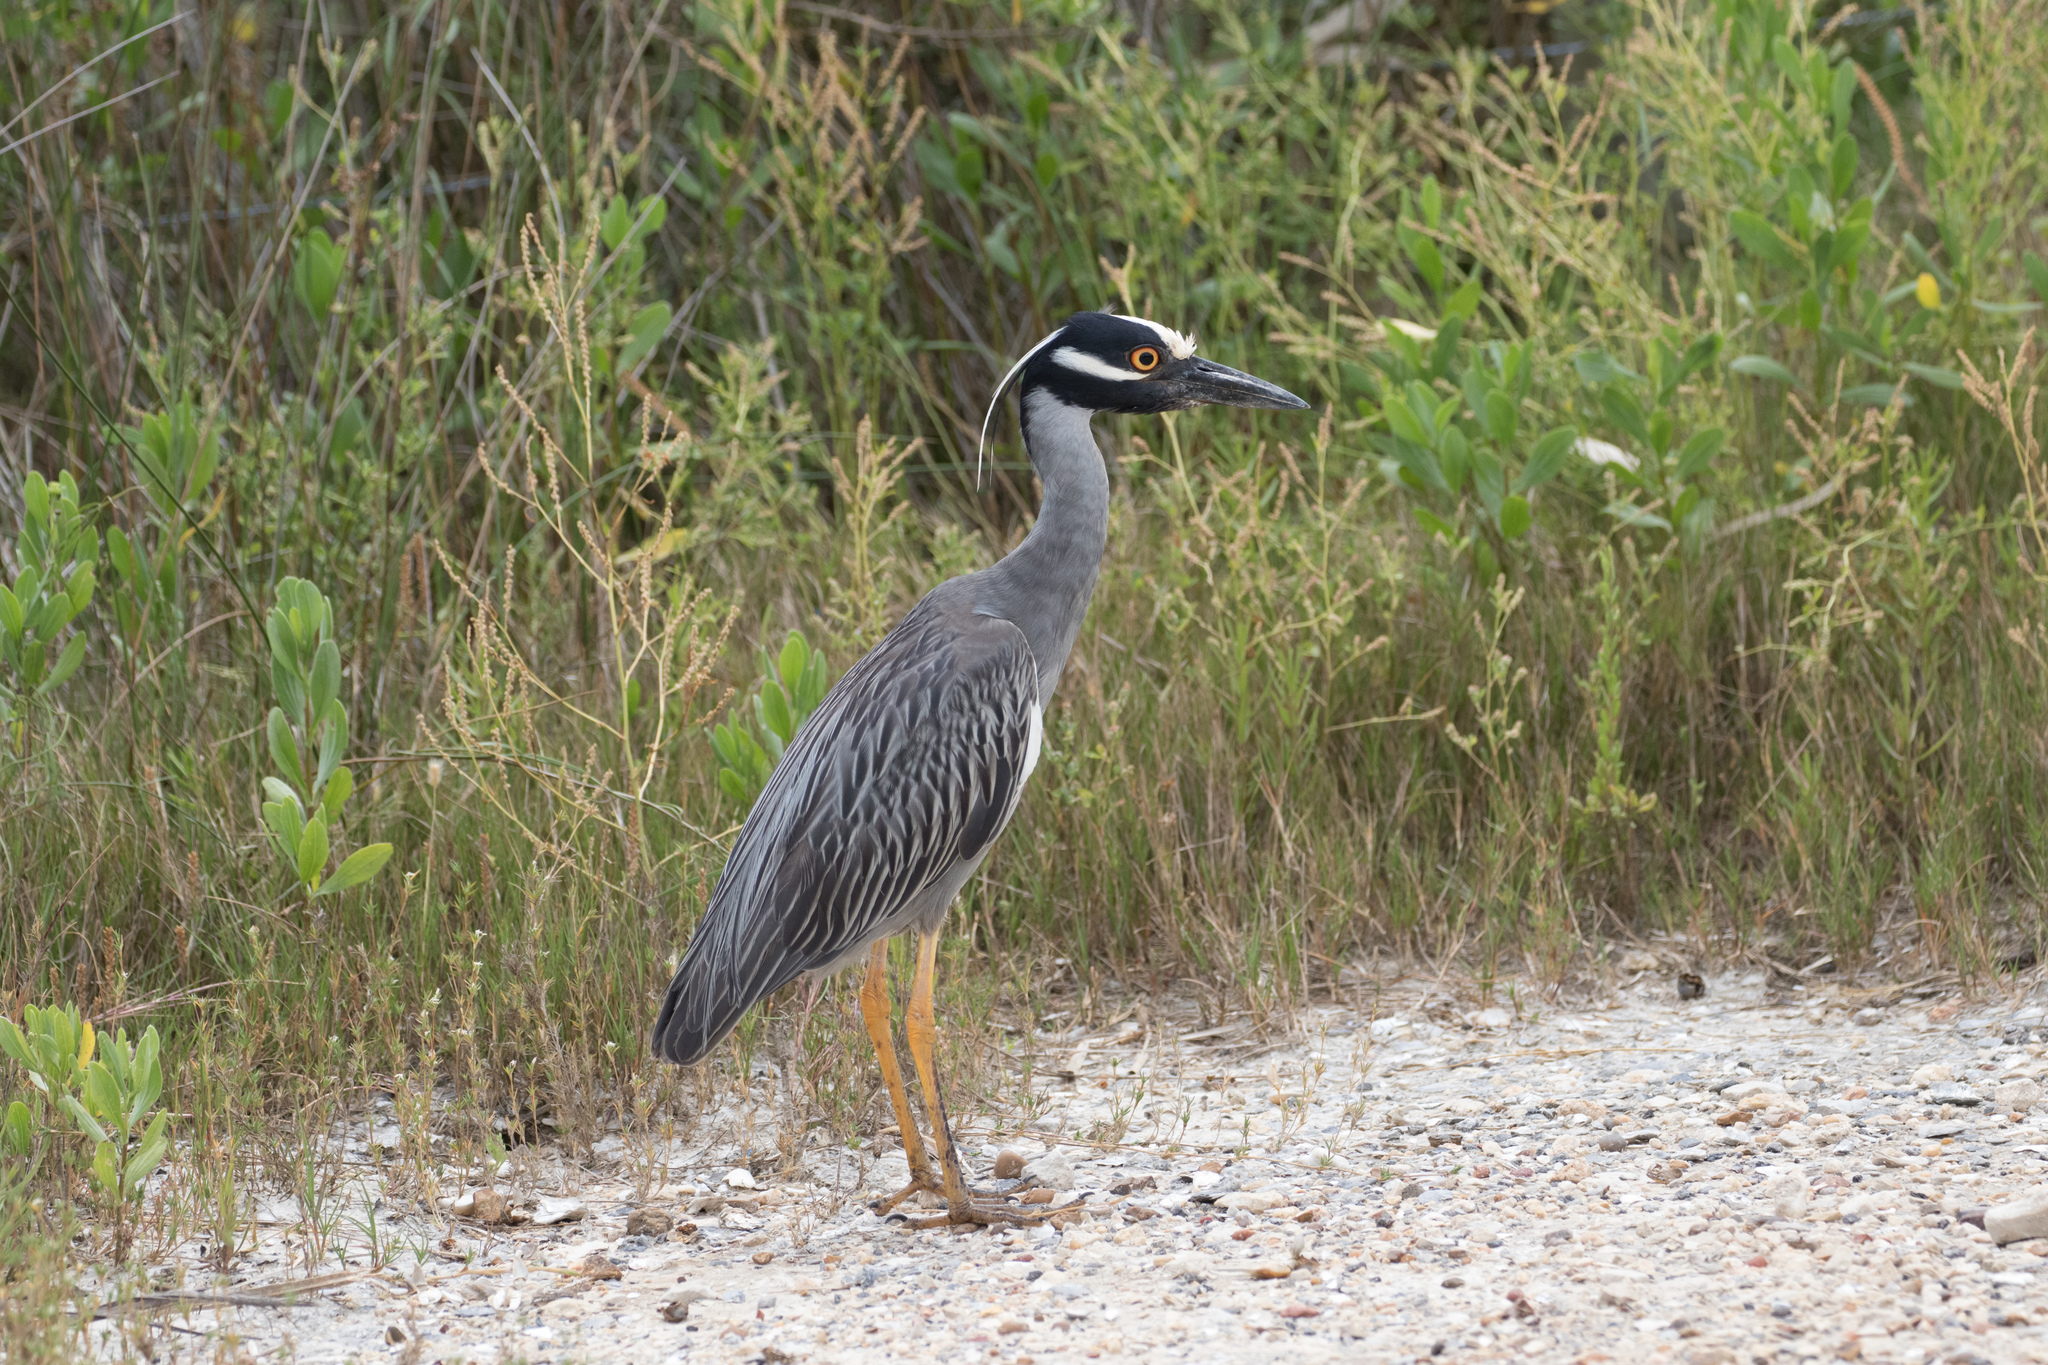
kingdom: Animalia
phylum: Chordata
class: Aves
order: Pelecaniformes
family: Ardeidae
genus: Nyctanassa
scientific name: Nyctanassa violacea
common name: Yellow-crowned night heron
